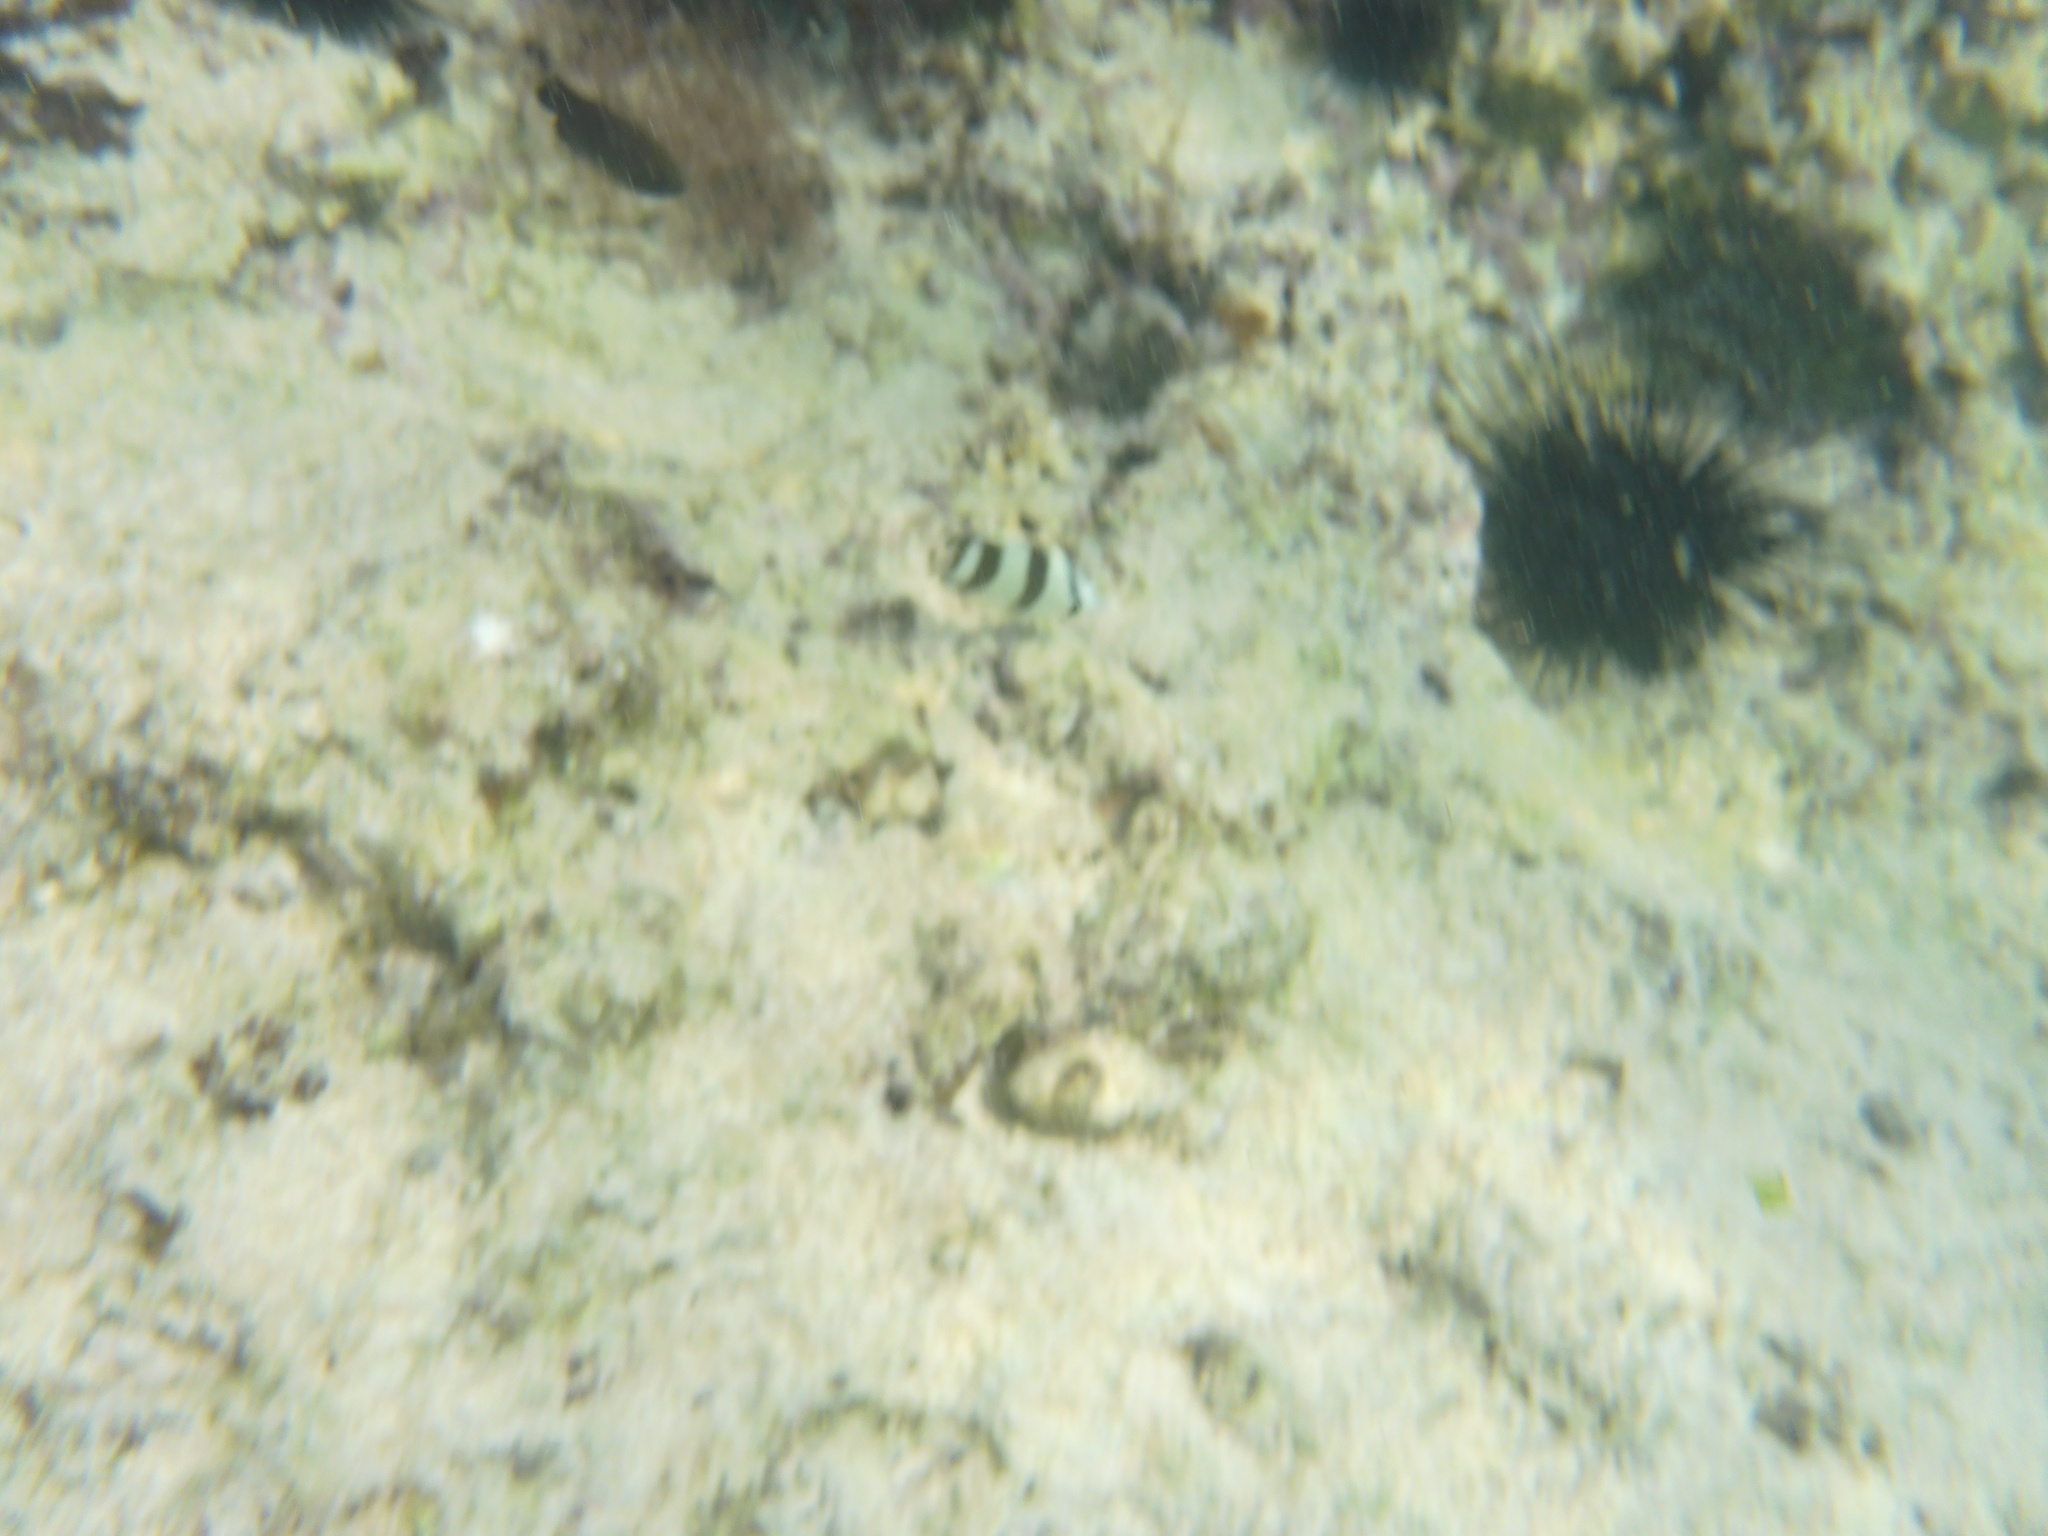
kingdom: Animalia
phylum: Chordata
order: Perciformes
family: Chaetodontidae
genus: Chaetodon
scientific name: Chaetodon striatus
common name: Banded butterflyfish
